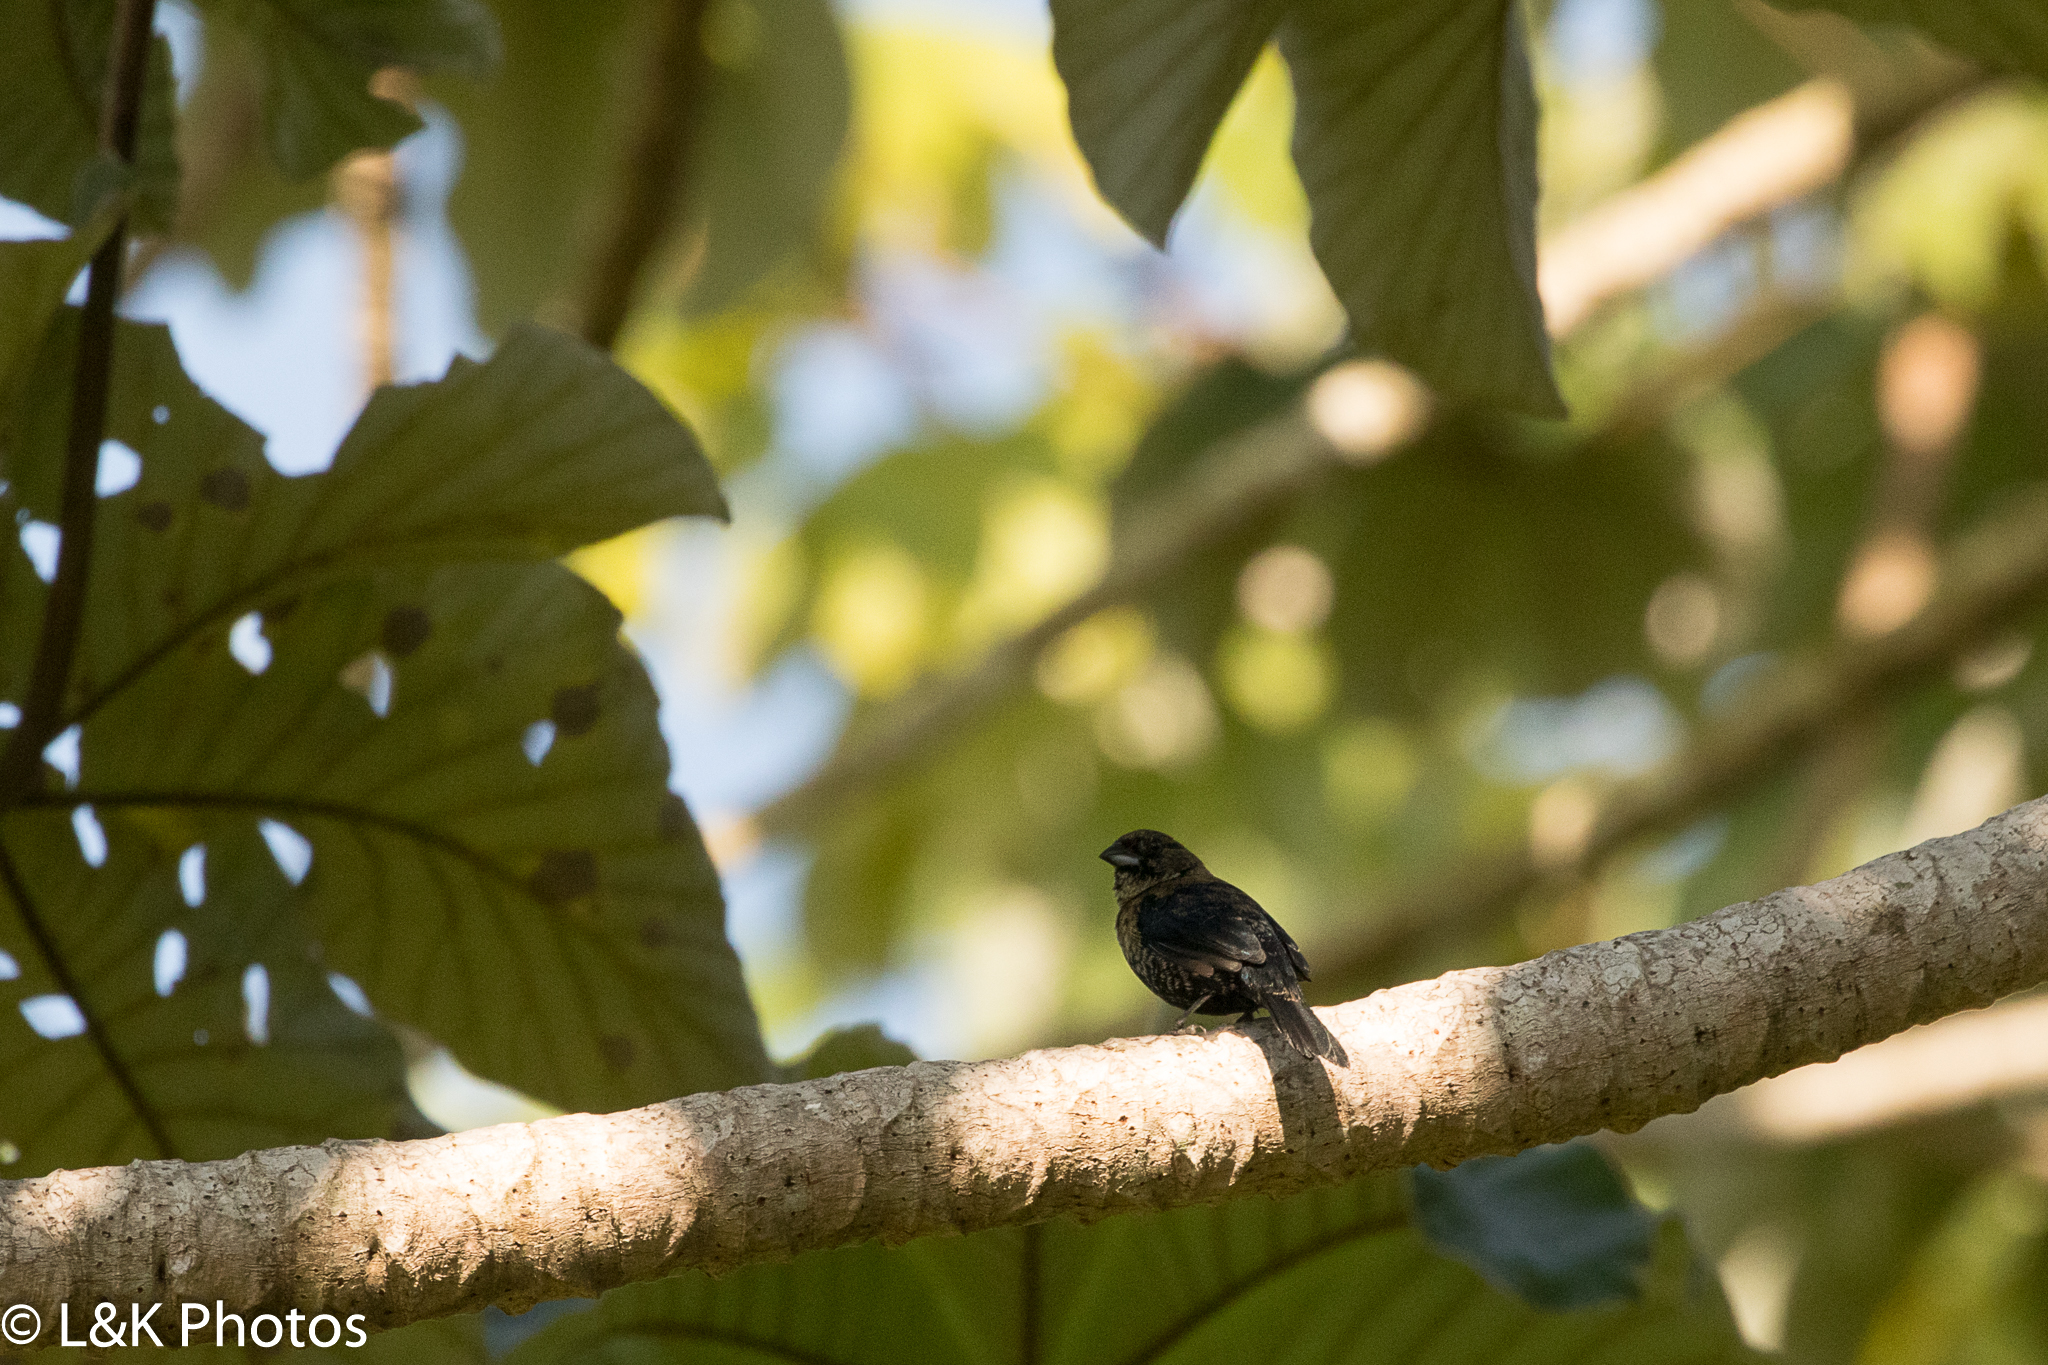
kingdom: Animalia
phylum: Chordata
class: Aves
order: Passeriformes
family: Thraupidae
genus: Volatinia
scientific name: Volatinia jacarina
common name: Blue-black grassquit
